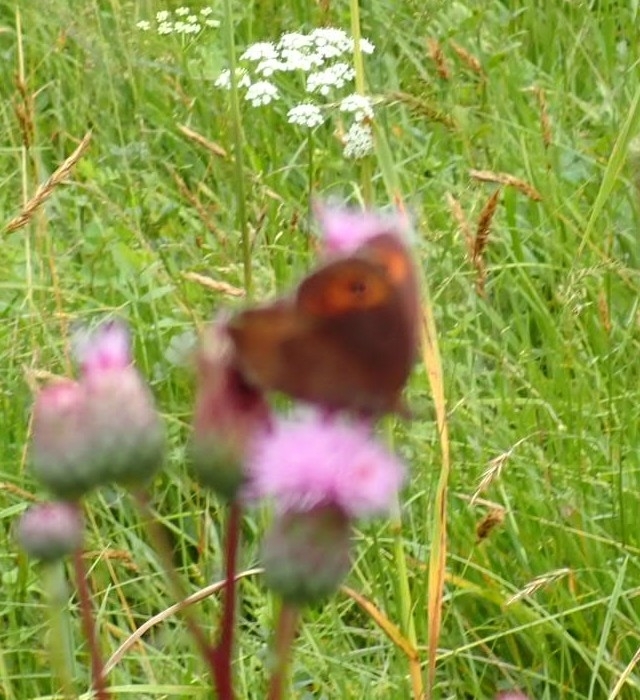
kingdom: Animalia
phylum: Arthropoda
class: Insecta
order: Lepidoptera
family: Nymphalidae
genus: Erebia
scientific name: Erebia aethiops
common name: Scotch argus
